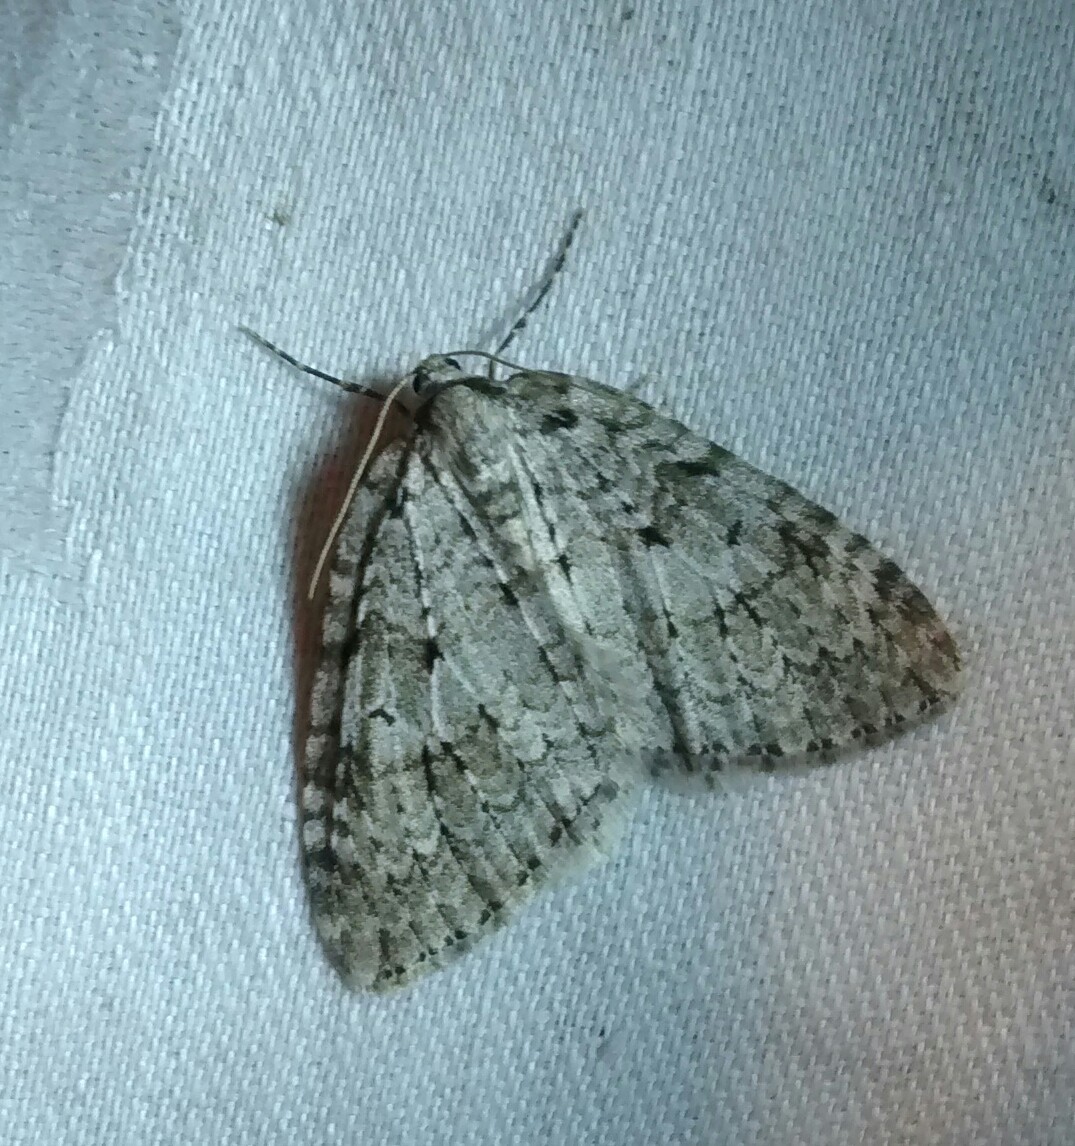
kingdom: Animalia
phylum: Arthropoda
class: Insecta
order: Lepidoptera
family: Geometridae
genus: Epirrita
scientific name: Epirrita autumnata
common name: Autumnal moth
